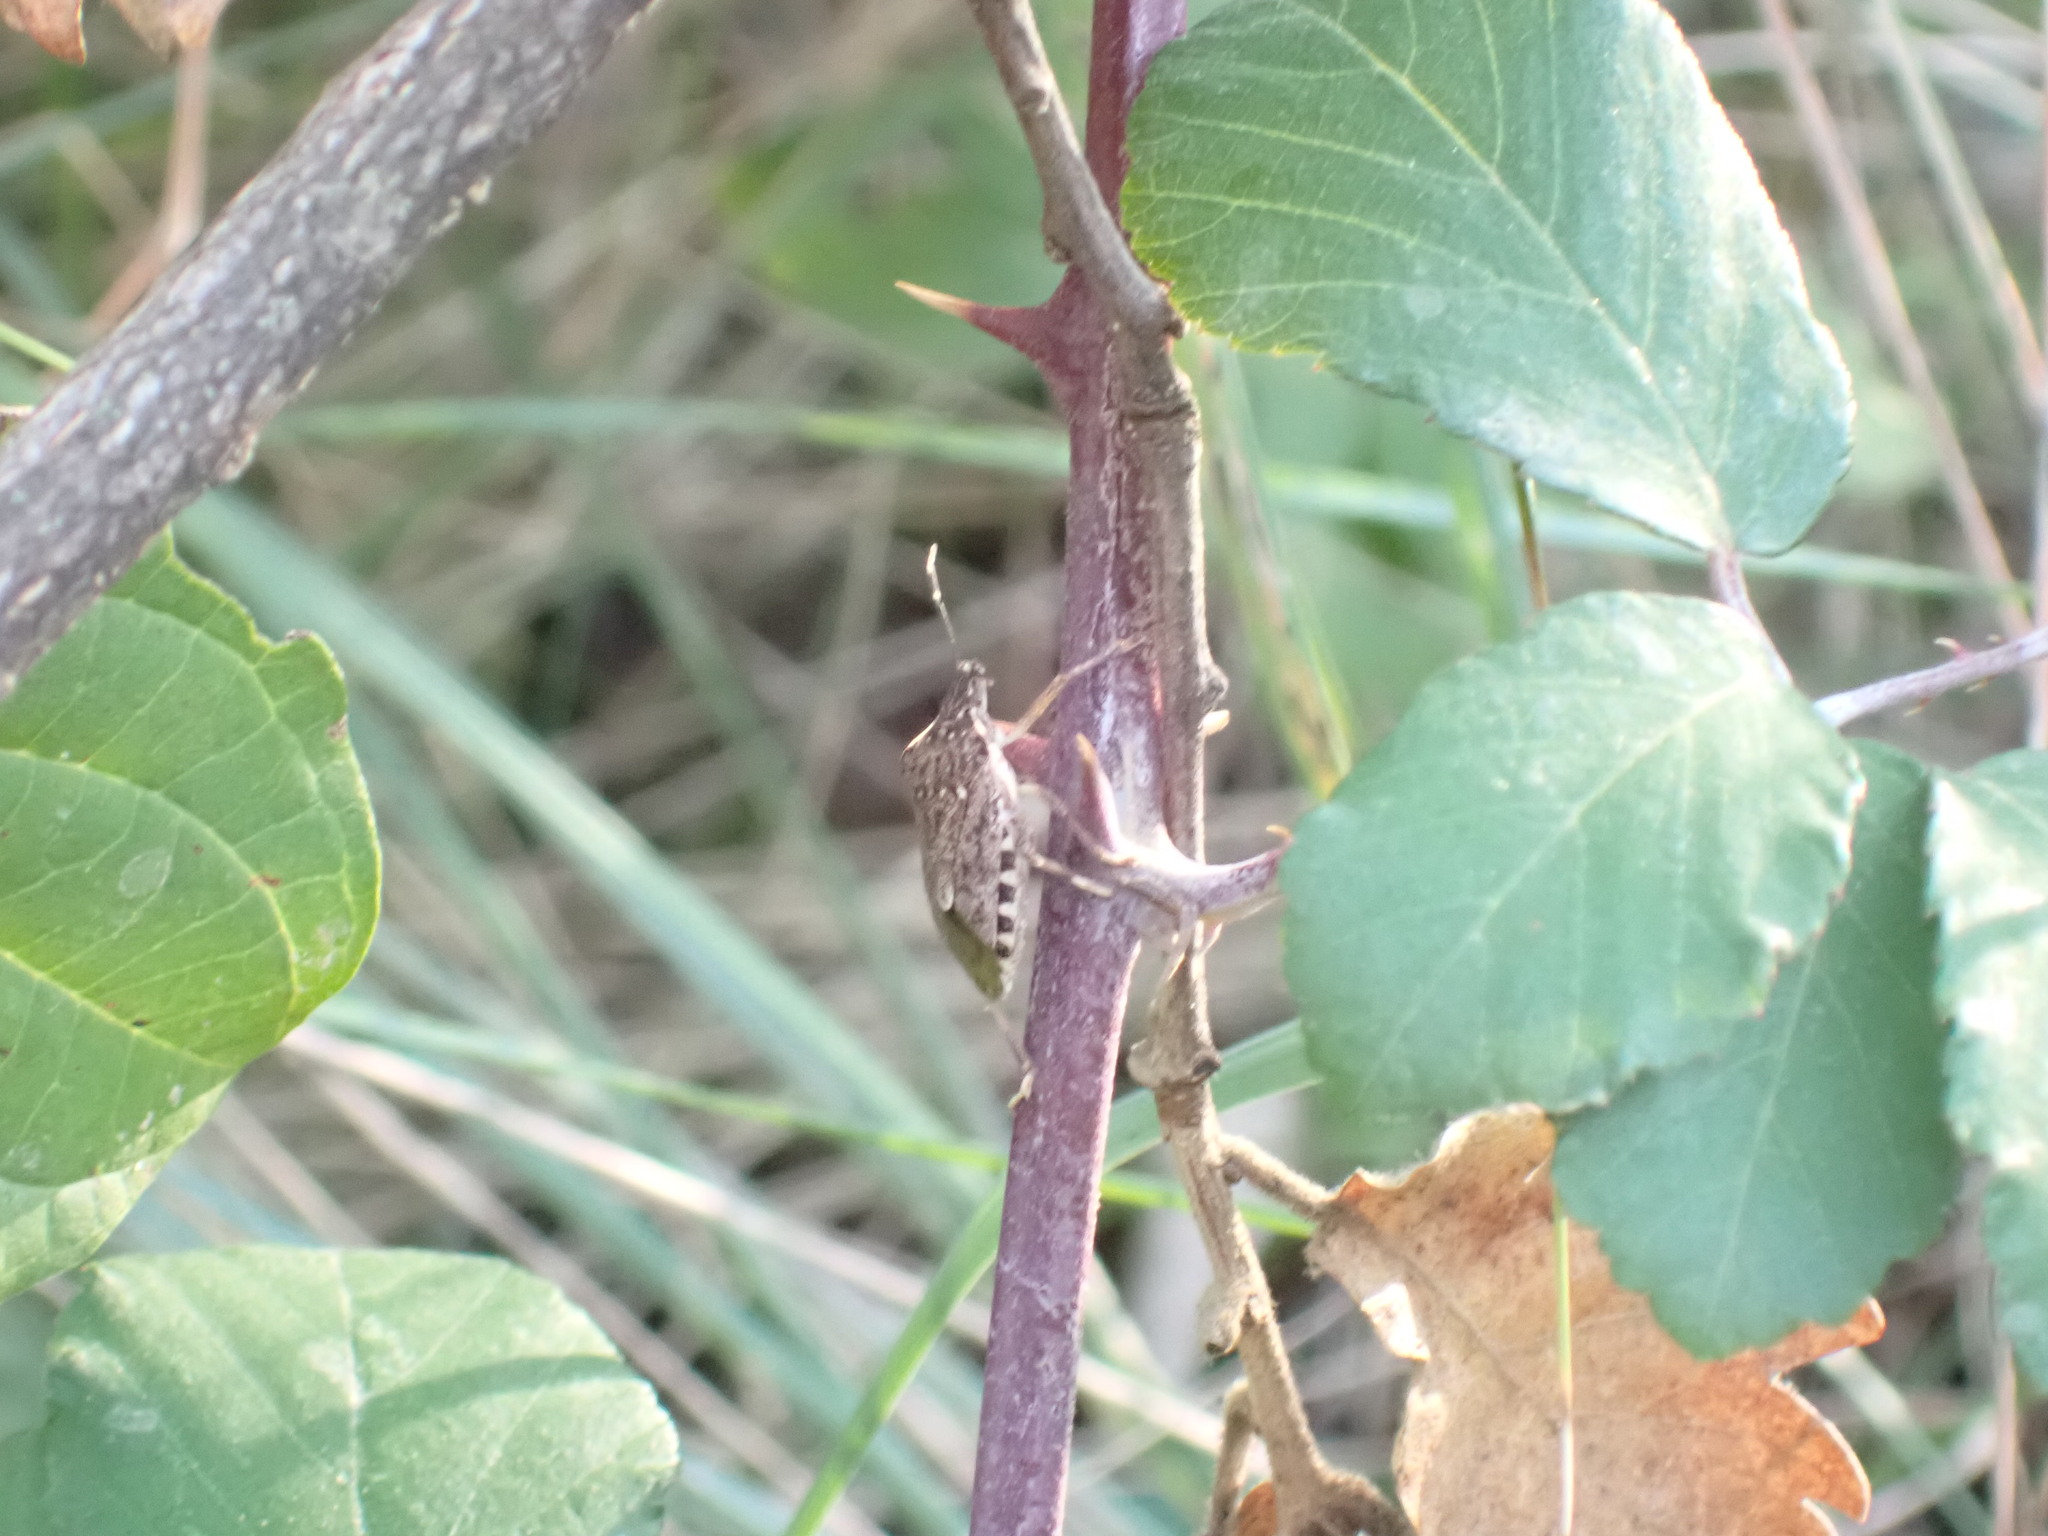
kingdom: Animalia
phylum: Arthropoda
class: Insecta
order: Hemiptera
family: Pentatomidae
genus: Halyomorpha
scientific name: Halyomorpha halys
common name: Brown marmorated stink bug
